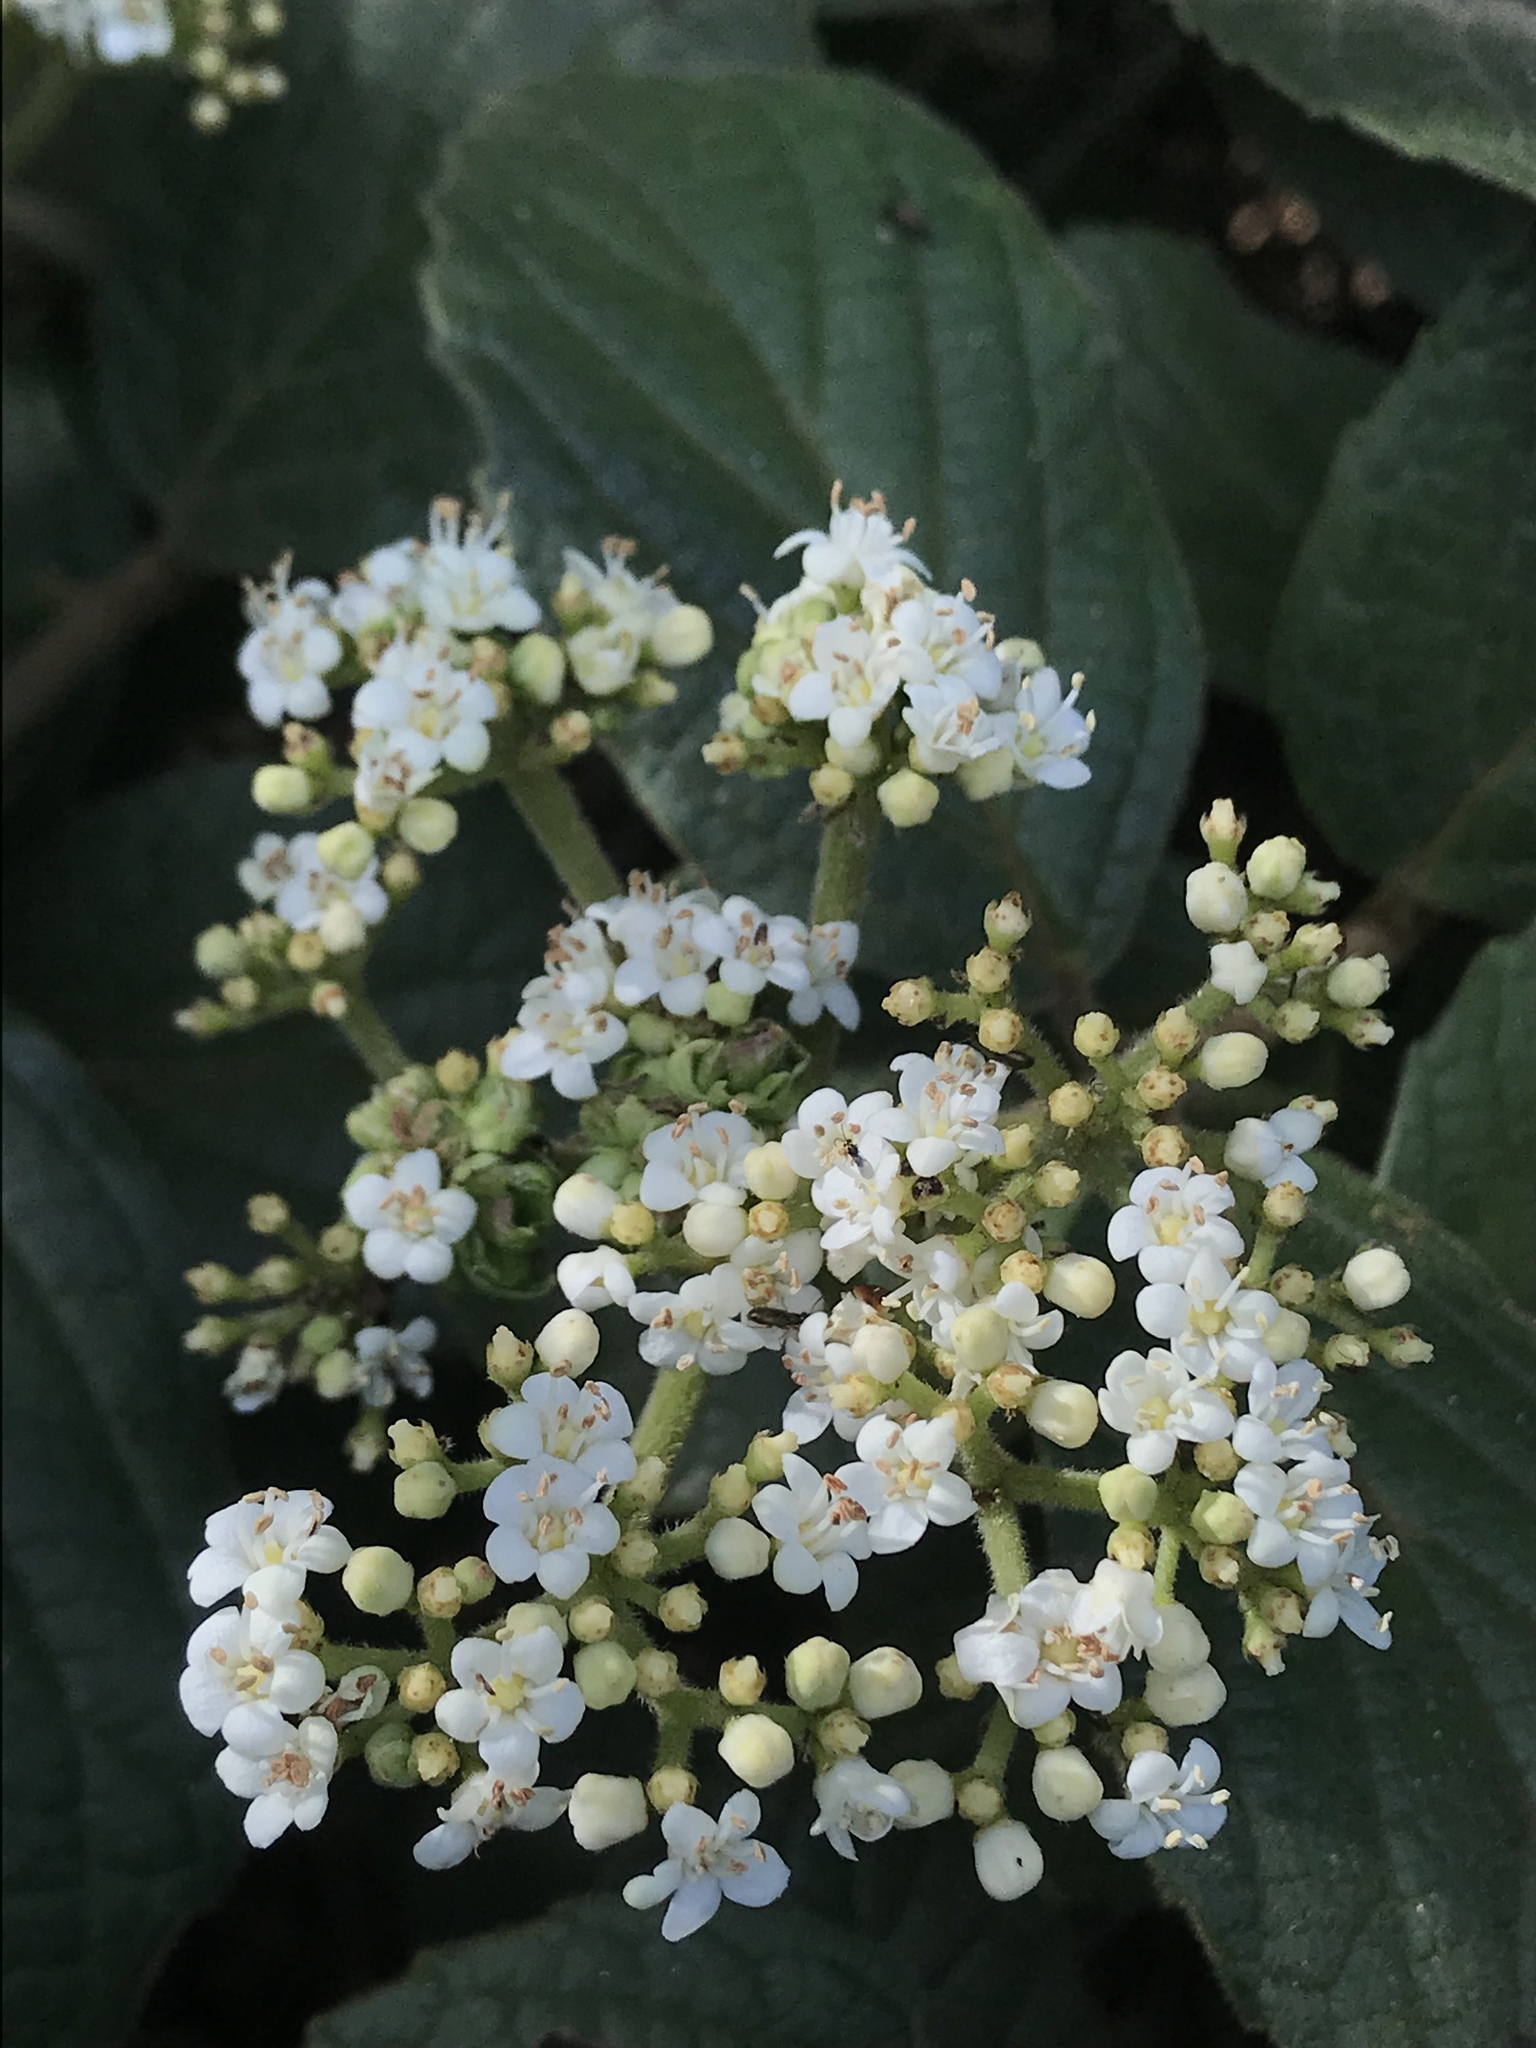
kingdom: Plantae
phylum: Tracheophyta
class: Magnoliopsida
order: Dipsacales
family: Viburnaceae
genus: Viburnum
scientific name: Viburnum lasiophyllum
